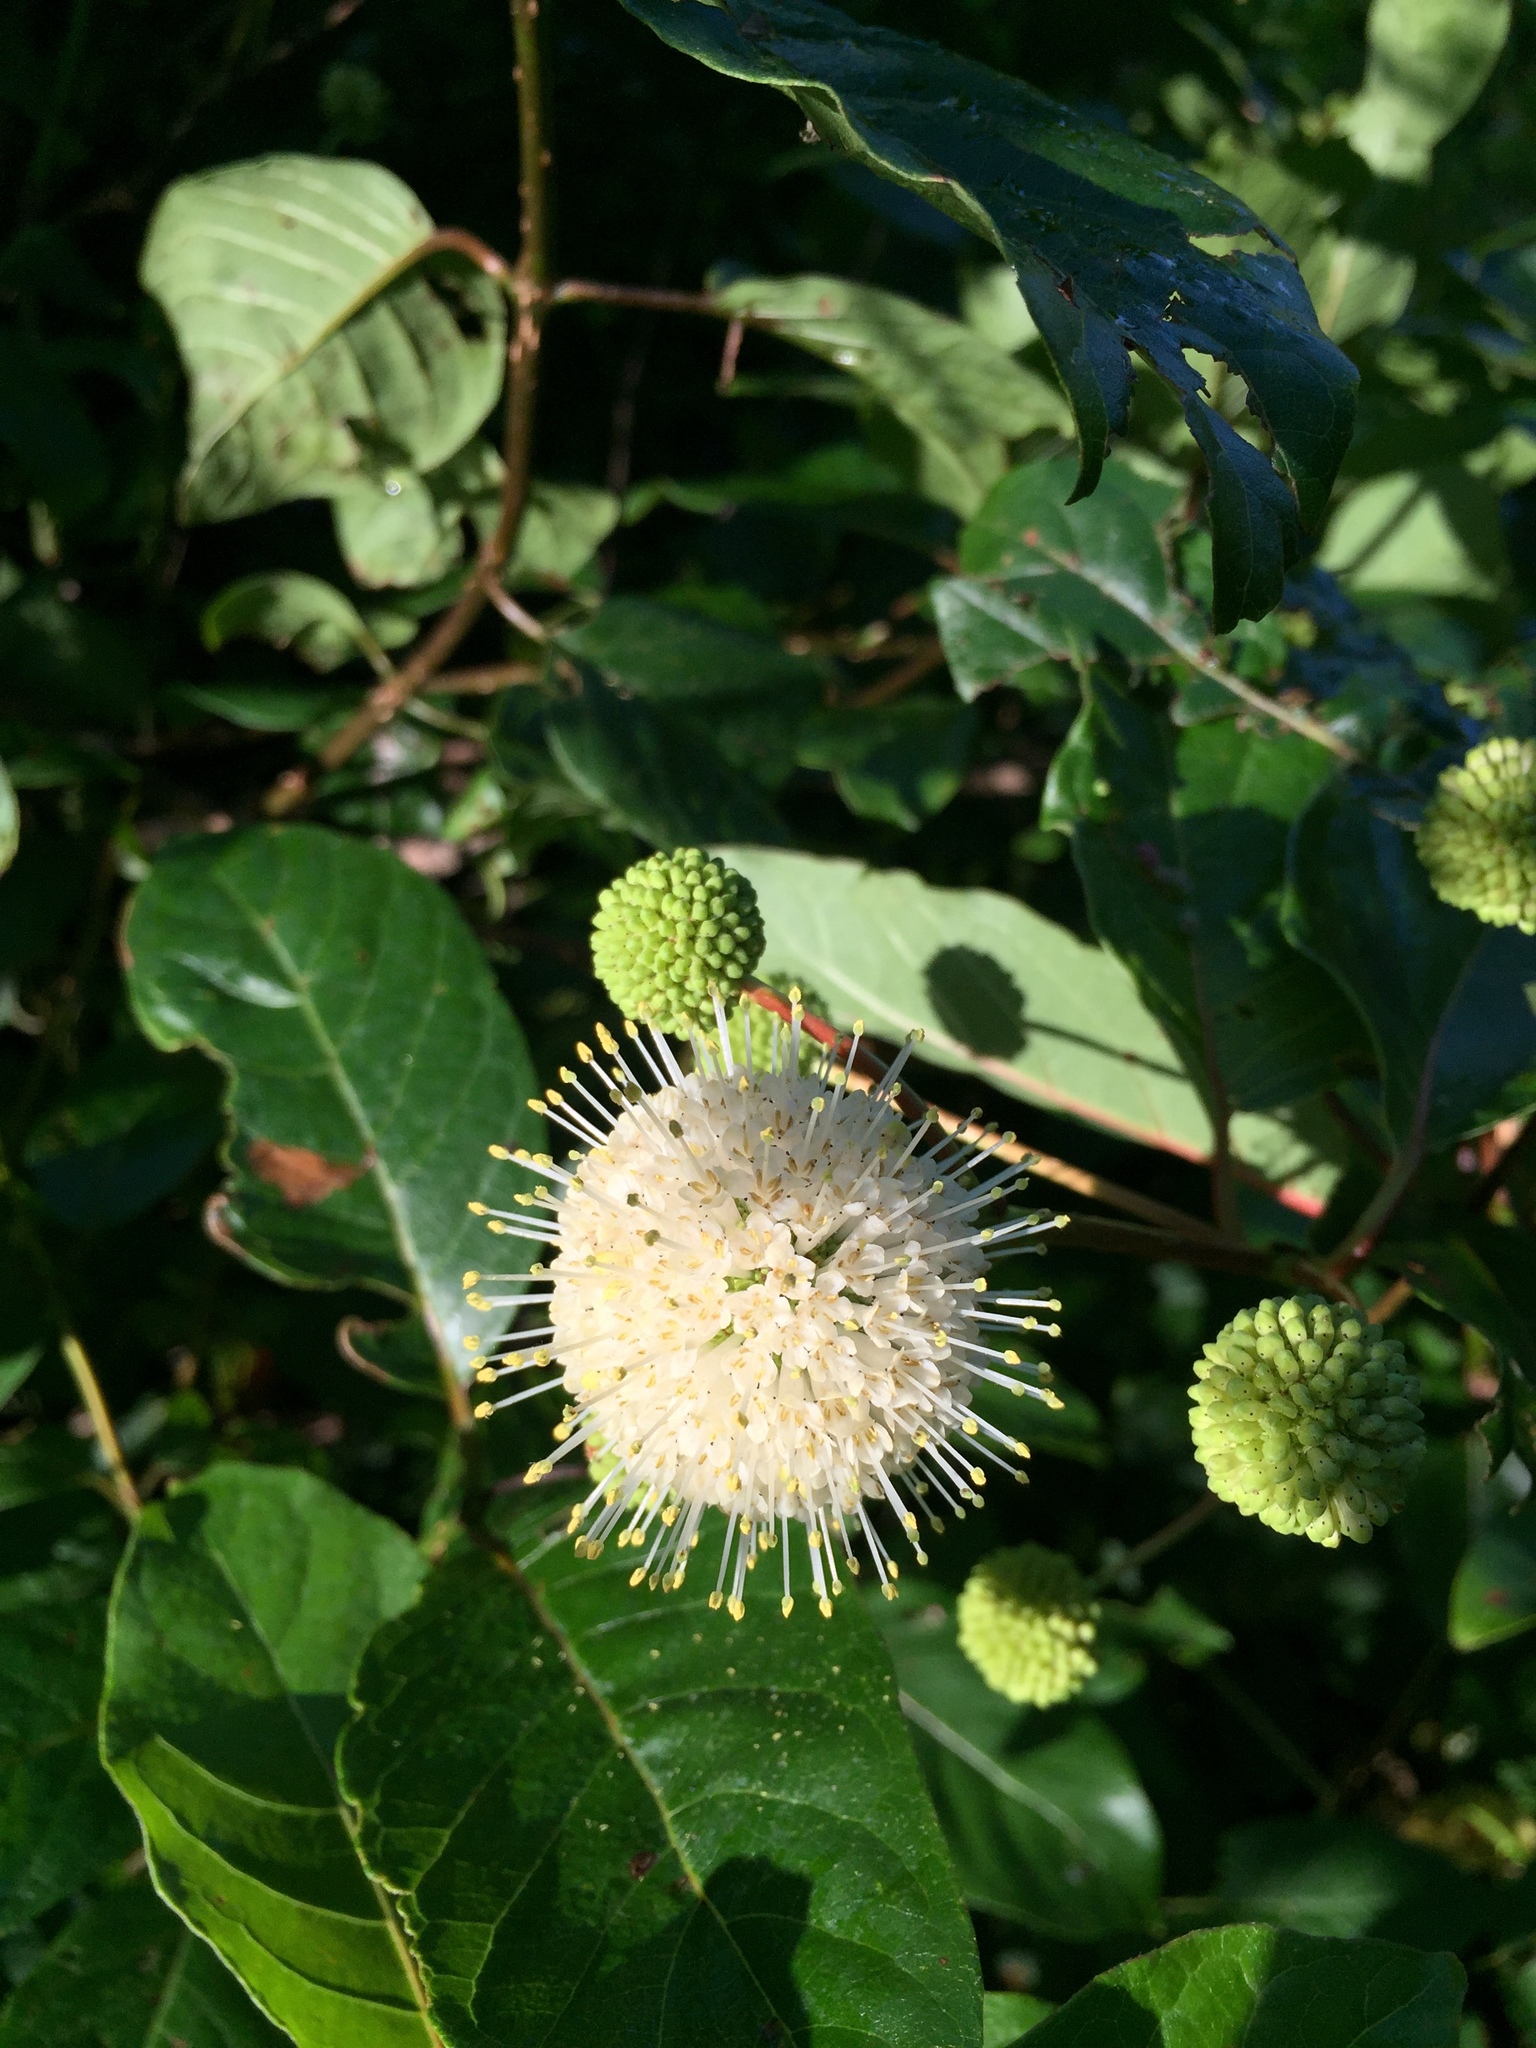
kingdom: Plantae
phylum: Tracheophyta
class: Magnoliopsida
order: Gentianales
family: Rubiaceae
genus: Cephalanthus
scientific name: Cephalanthus occidentalis
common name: Button-willow
